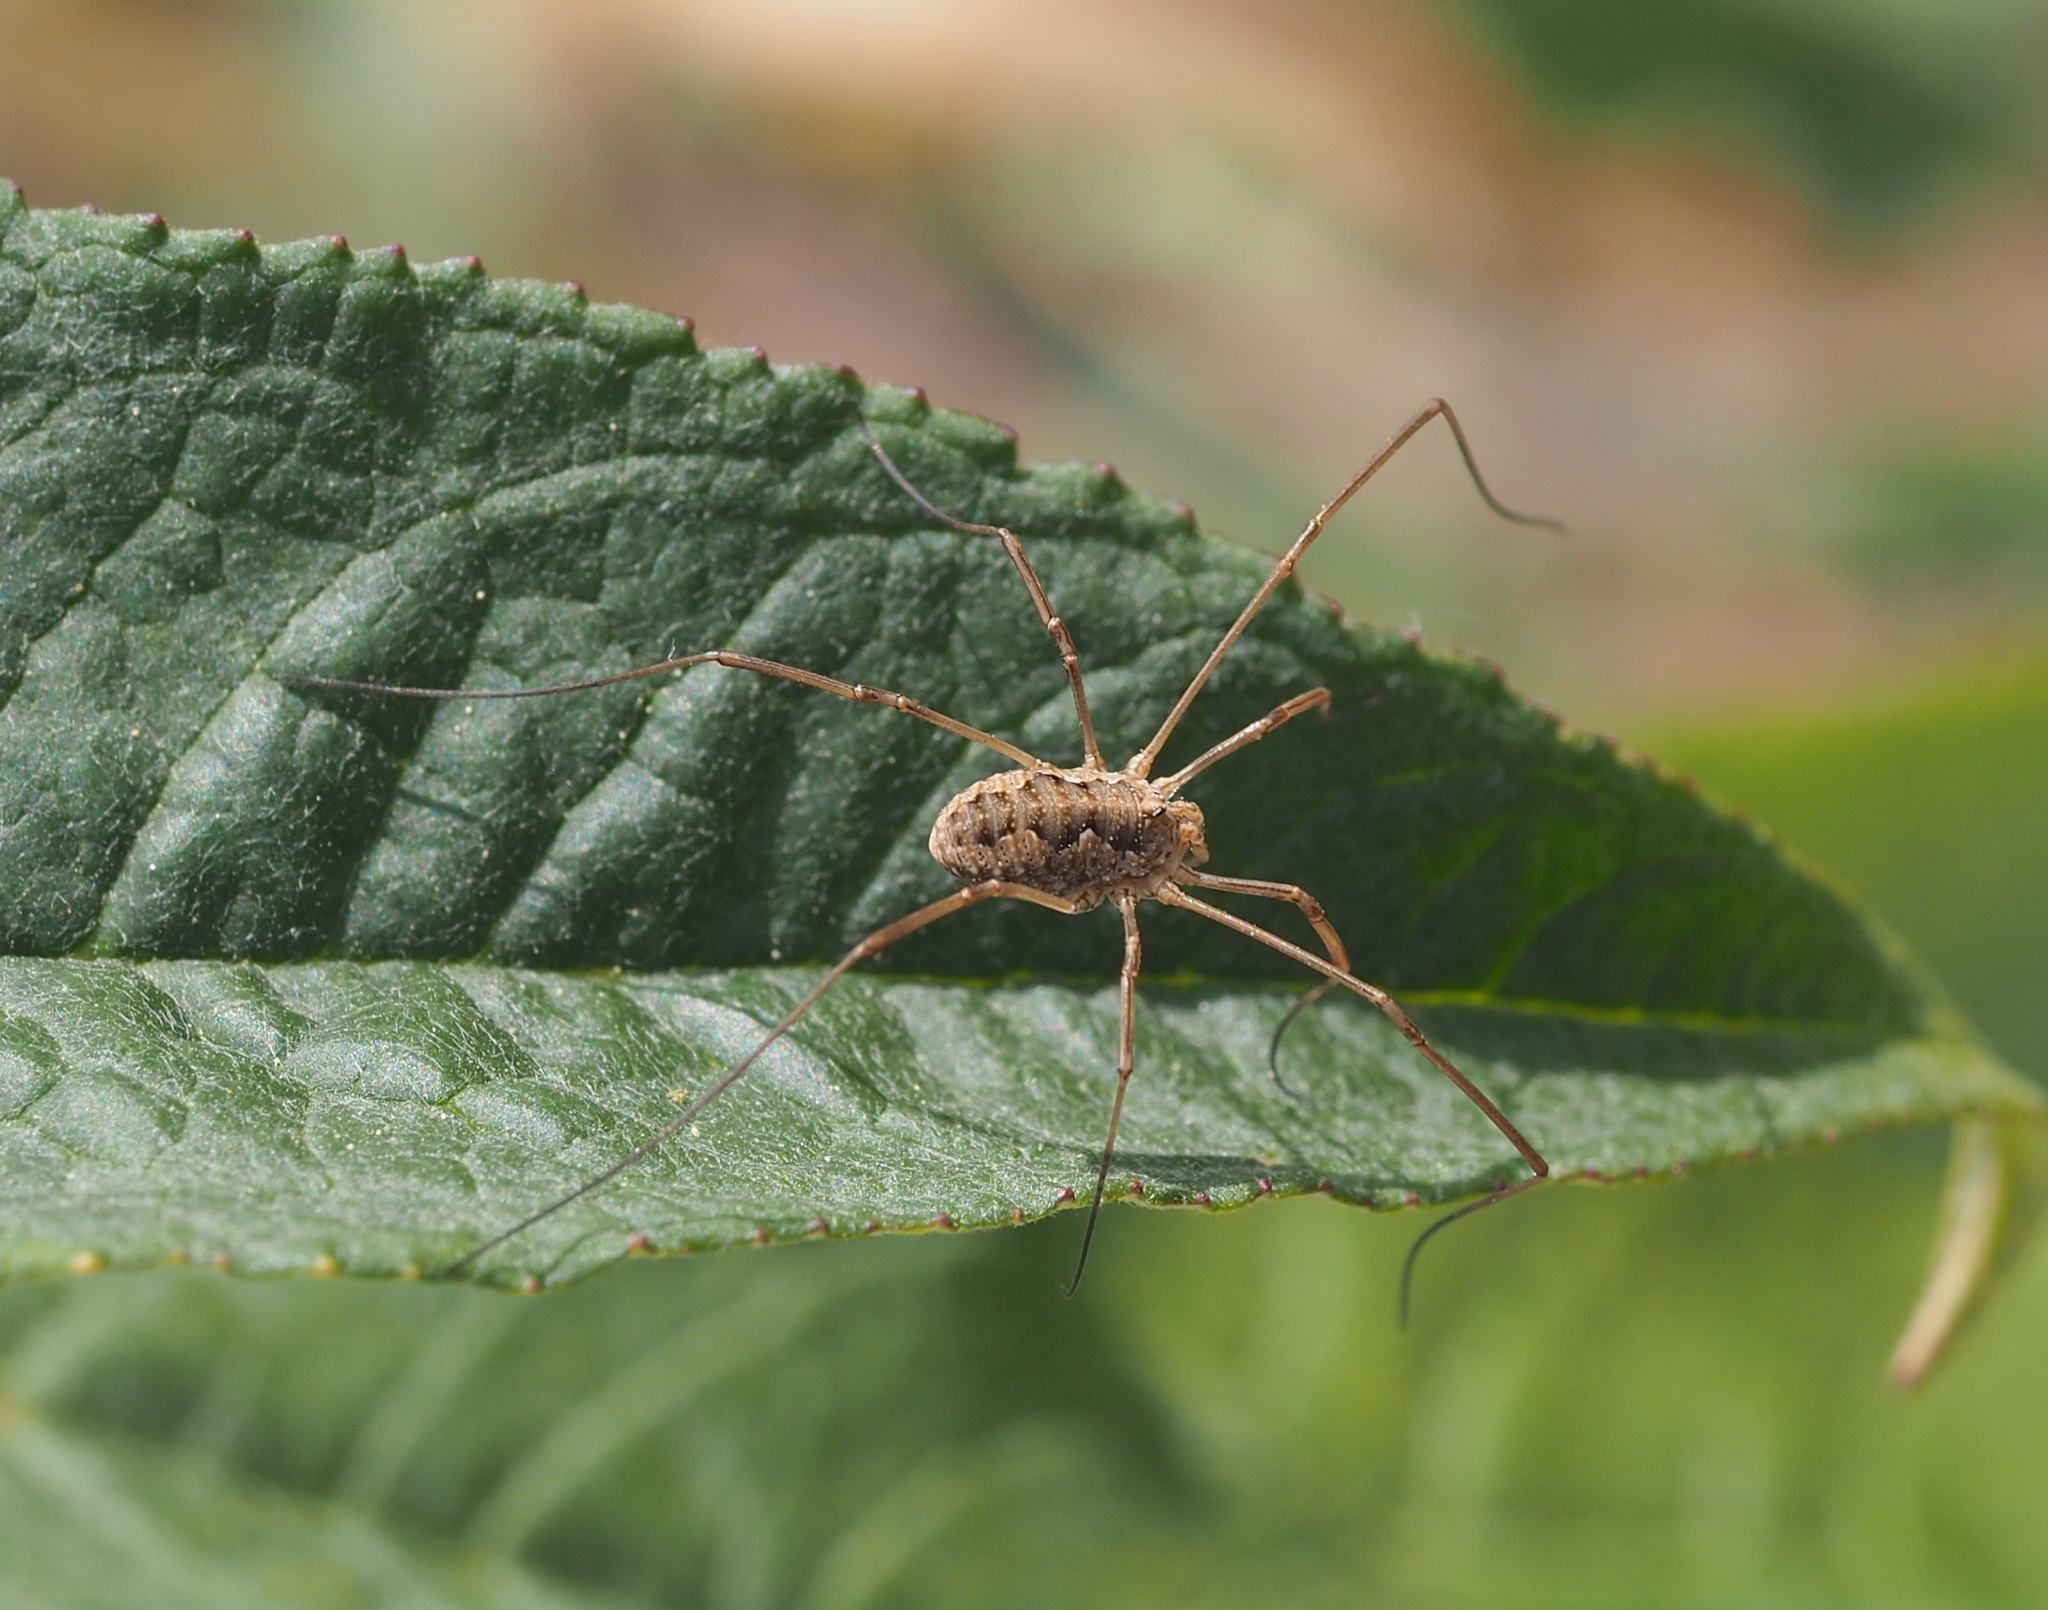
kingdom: Animalia
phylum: Arthropoda
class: Arachnida
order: Opiliones
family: Phalangiidae
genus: Phalangium
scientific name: Phalangium opilio
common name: Daddy longleg
